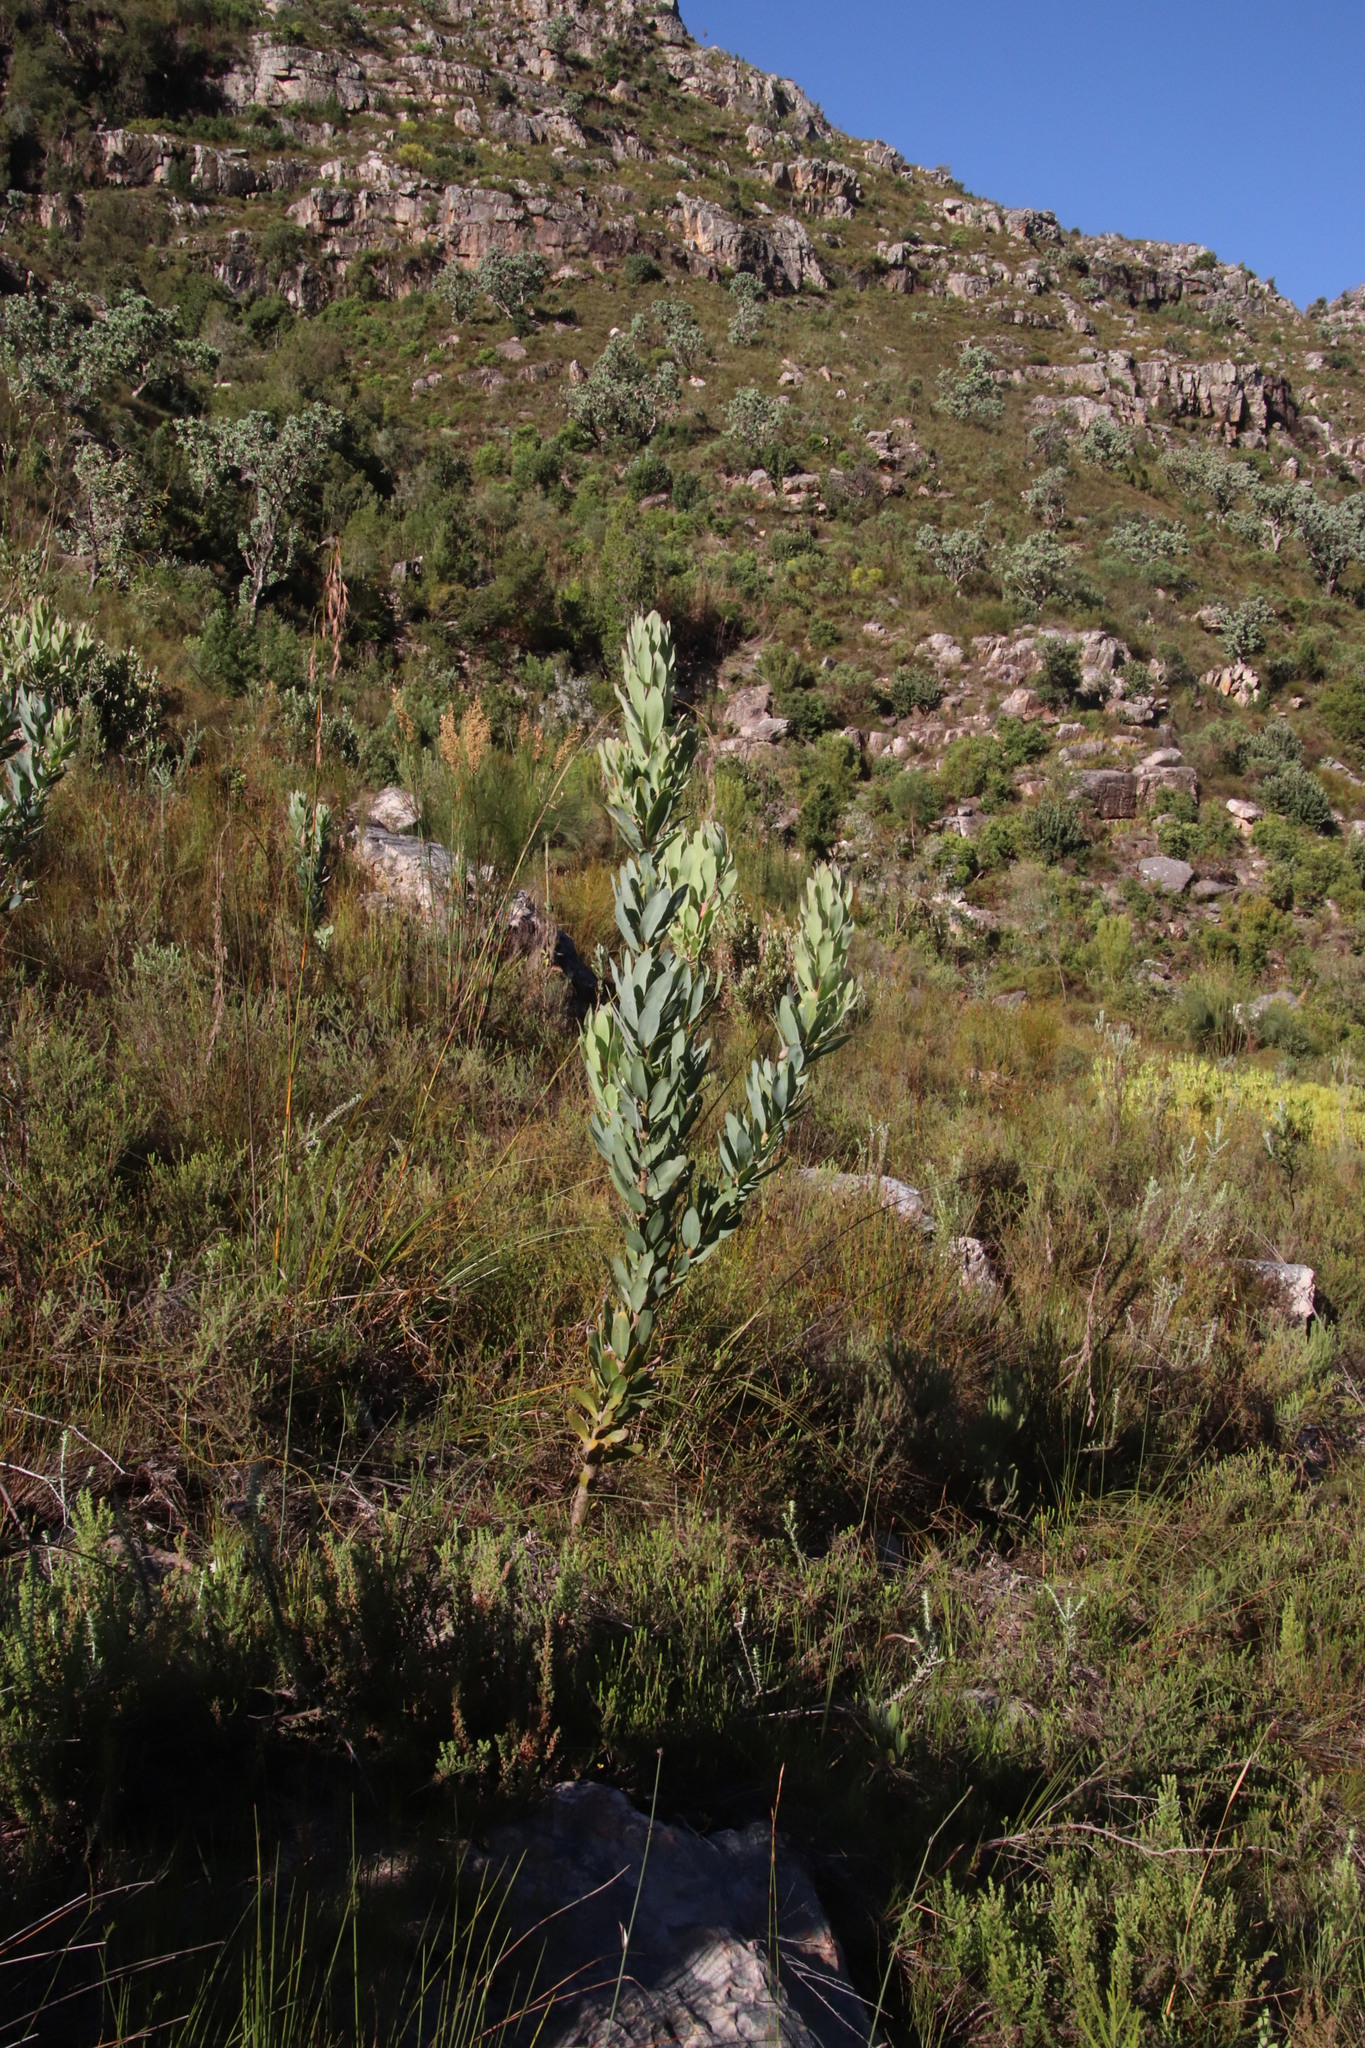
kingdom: Plantae
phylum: Tracheophyta
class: Magnoliopsida
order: Proteales
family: Proteaceae
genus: Protea
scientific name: Protea laurifolia
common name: Grey-leaf sugarbsh
